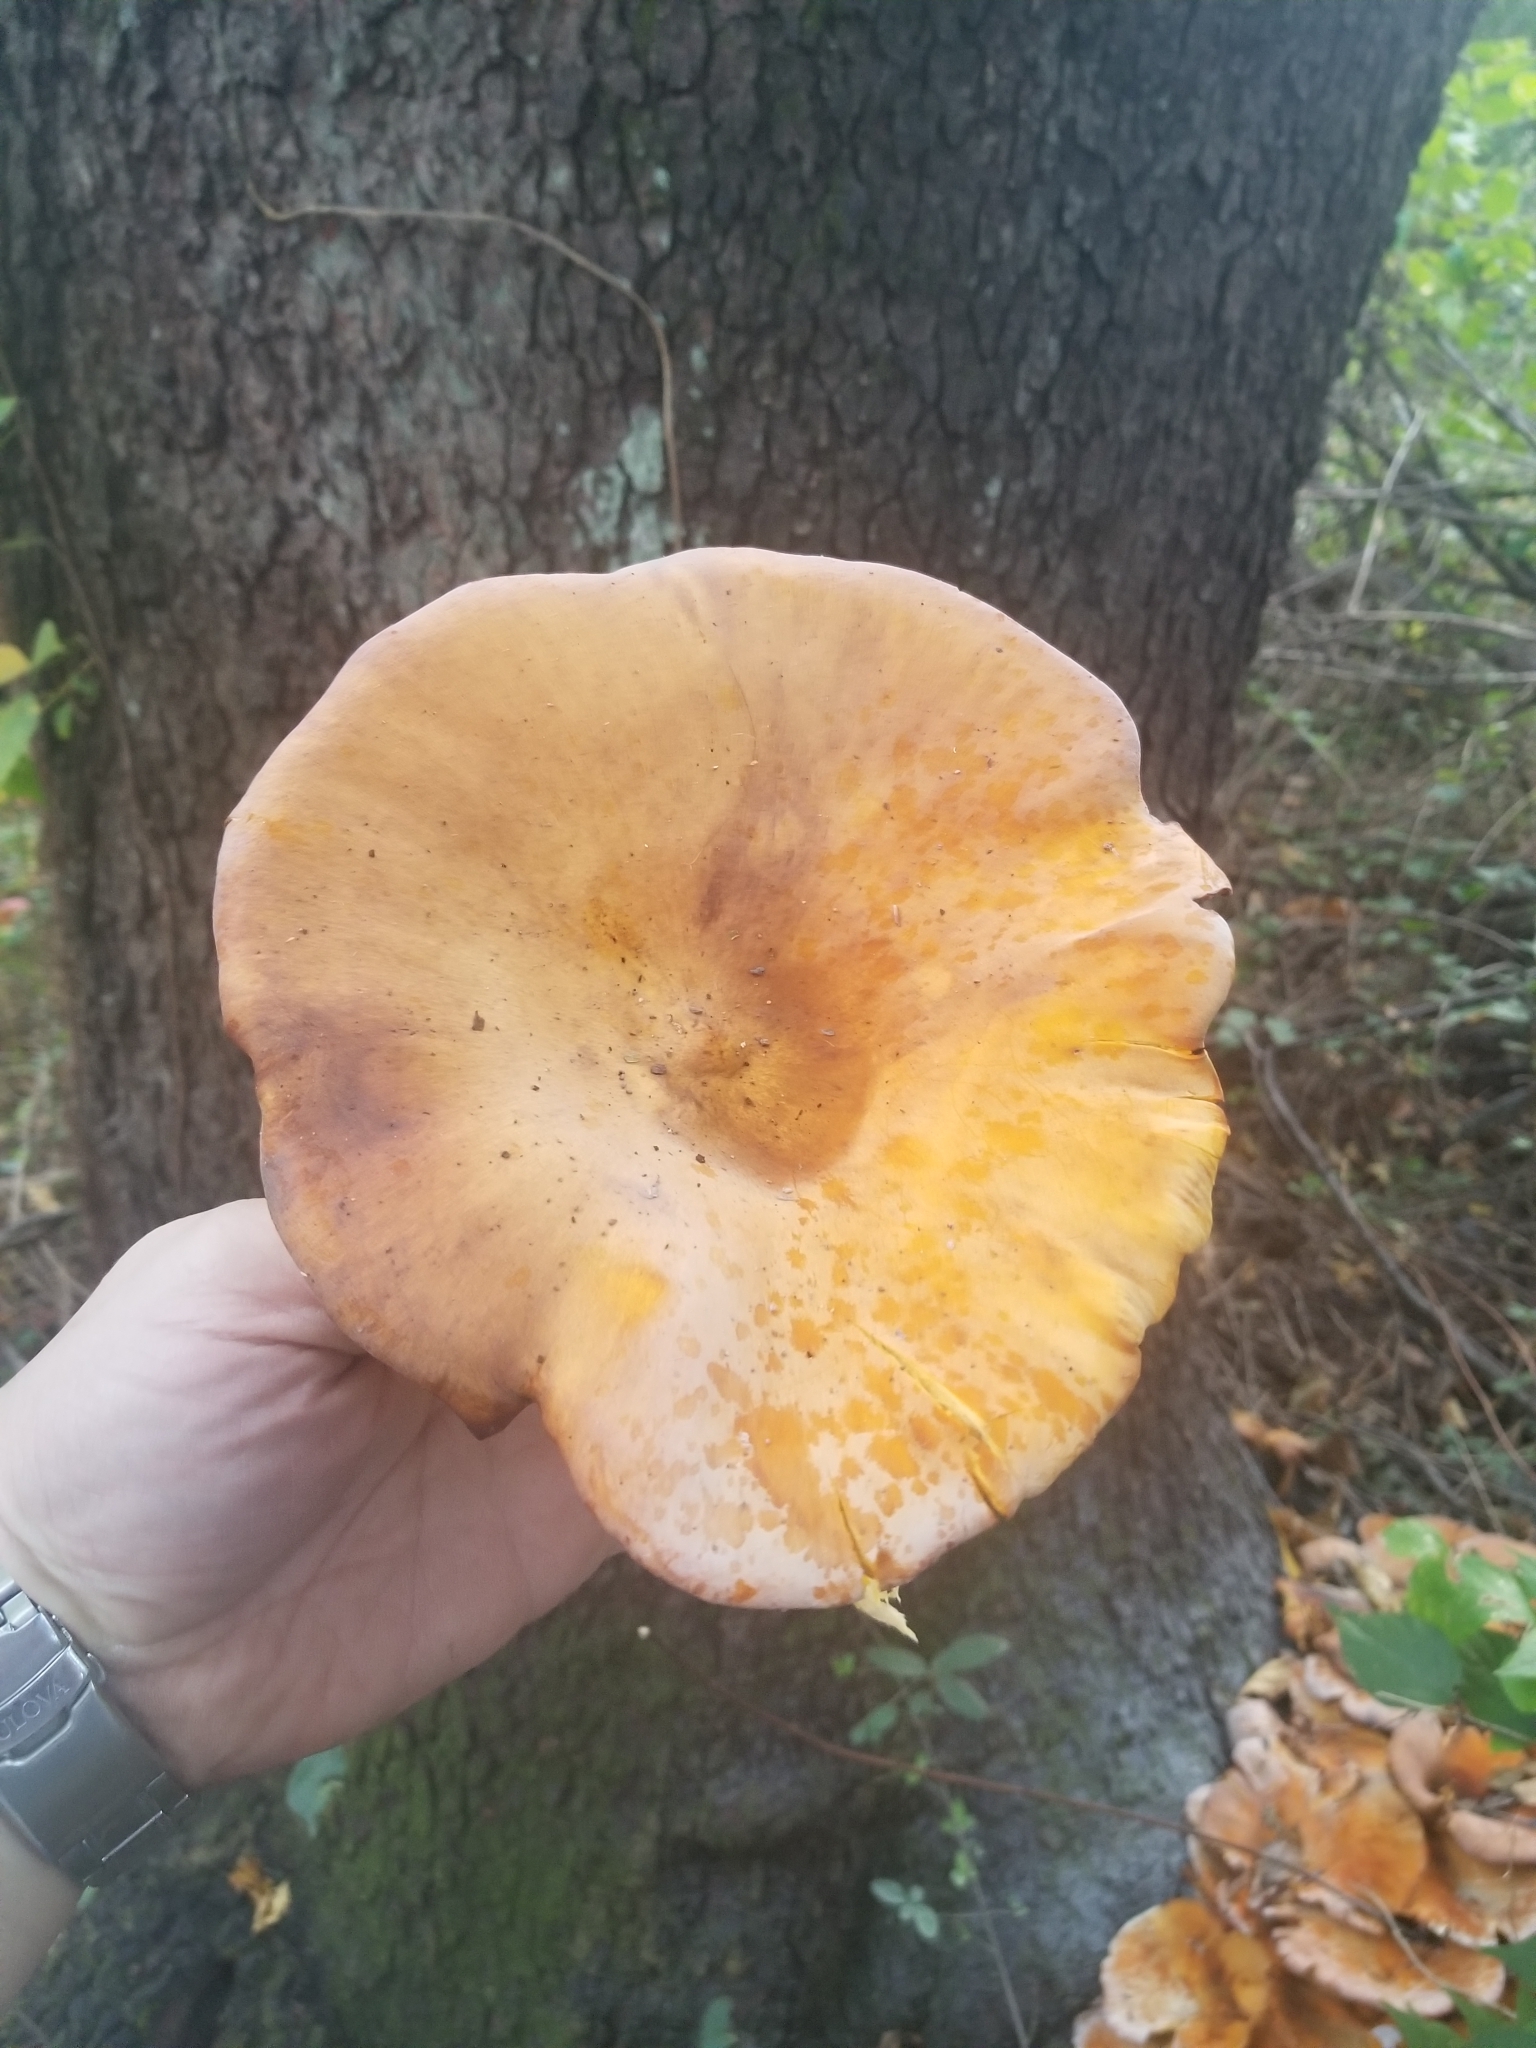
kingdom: Fungi
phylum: Basidiomycota
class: Agaricomycetes
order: Agaricales
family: Omphalotaceae
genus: Omphalotus
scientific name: Omphalotus illudens
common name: Jack o lantern
